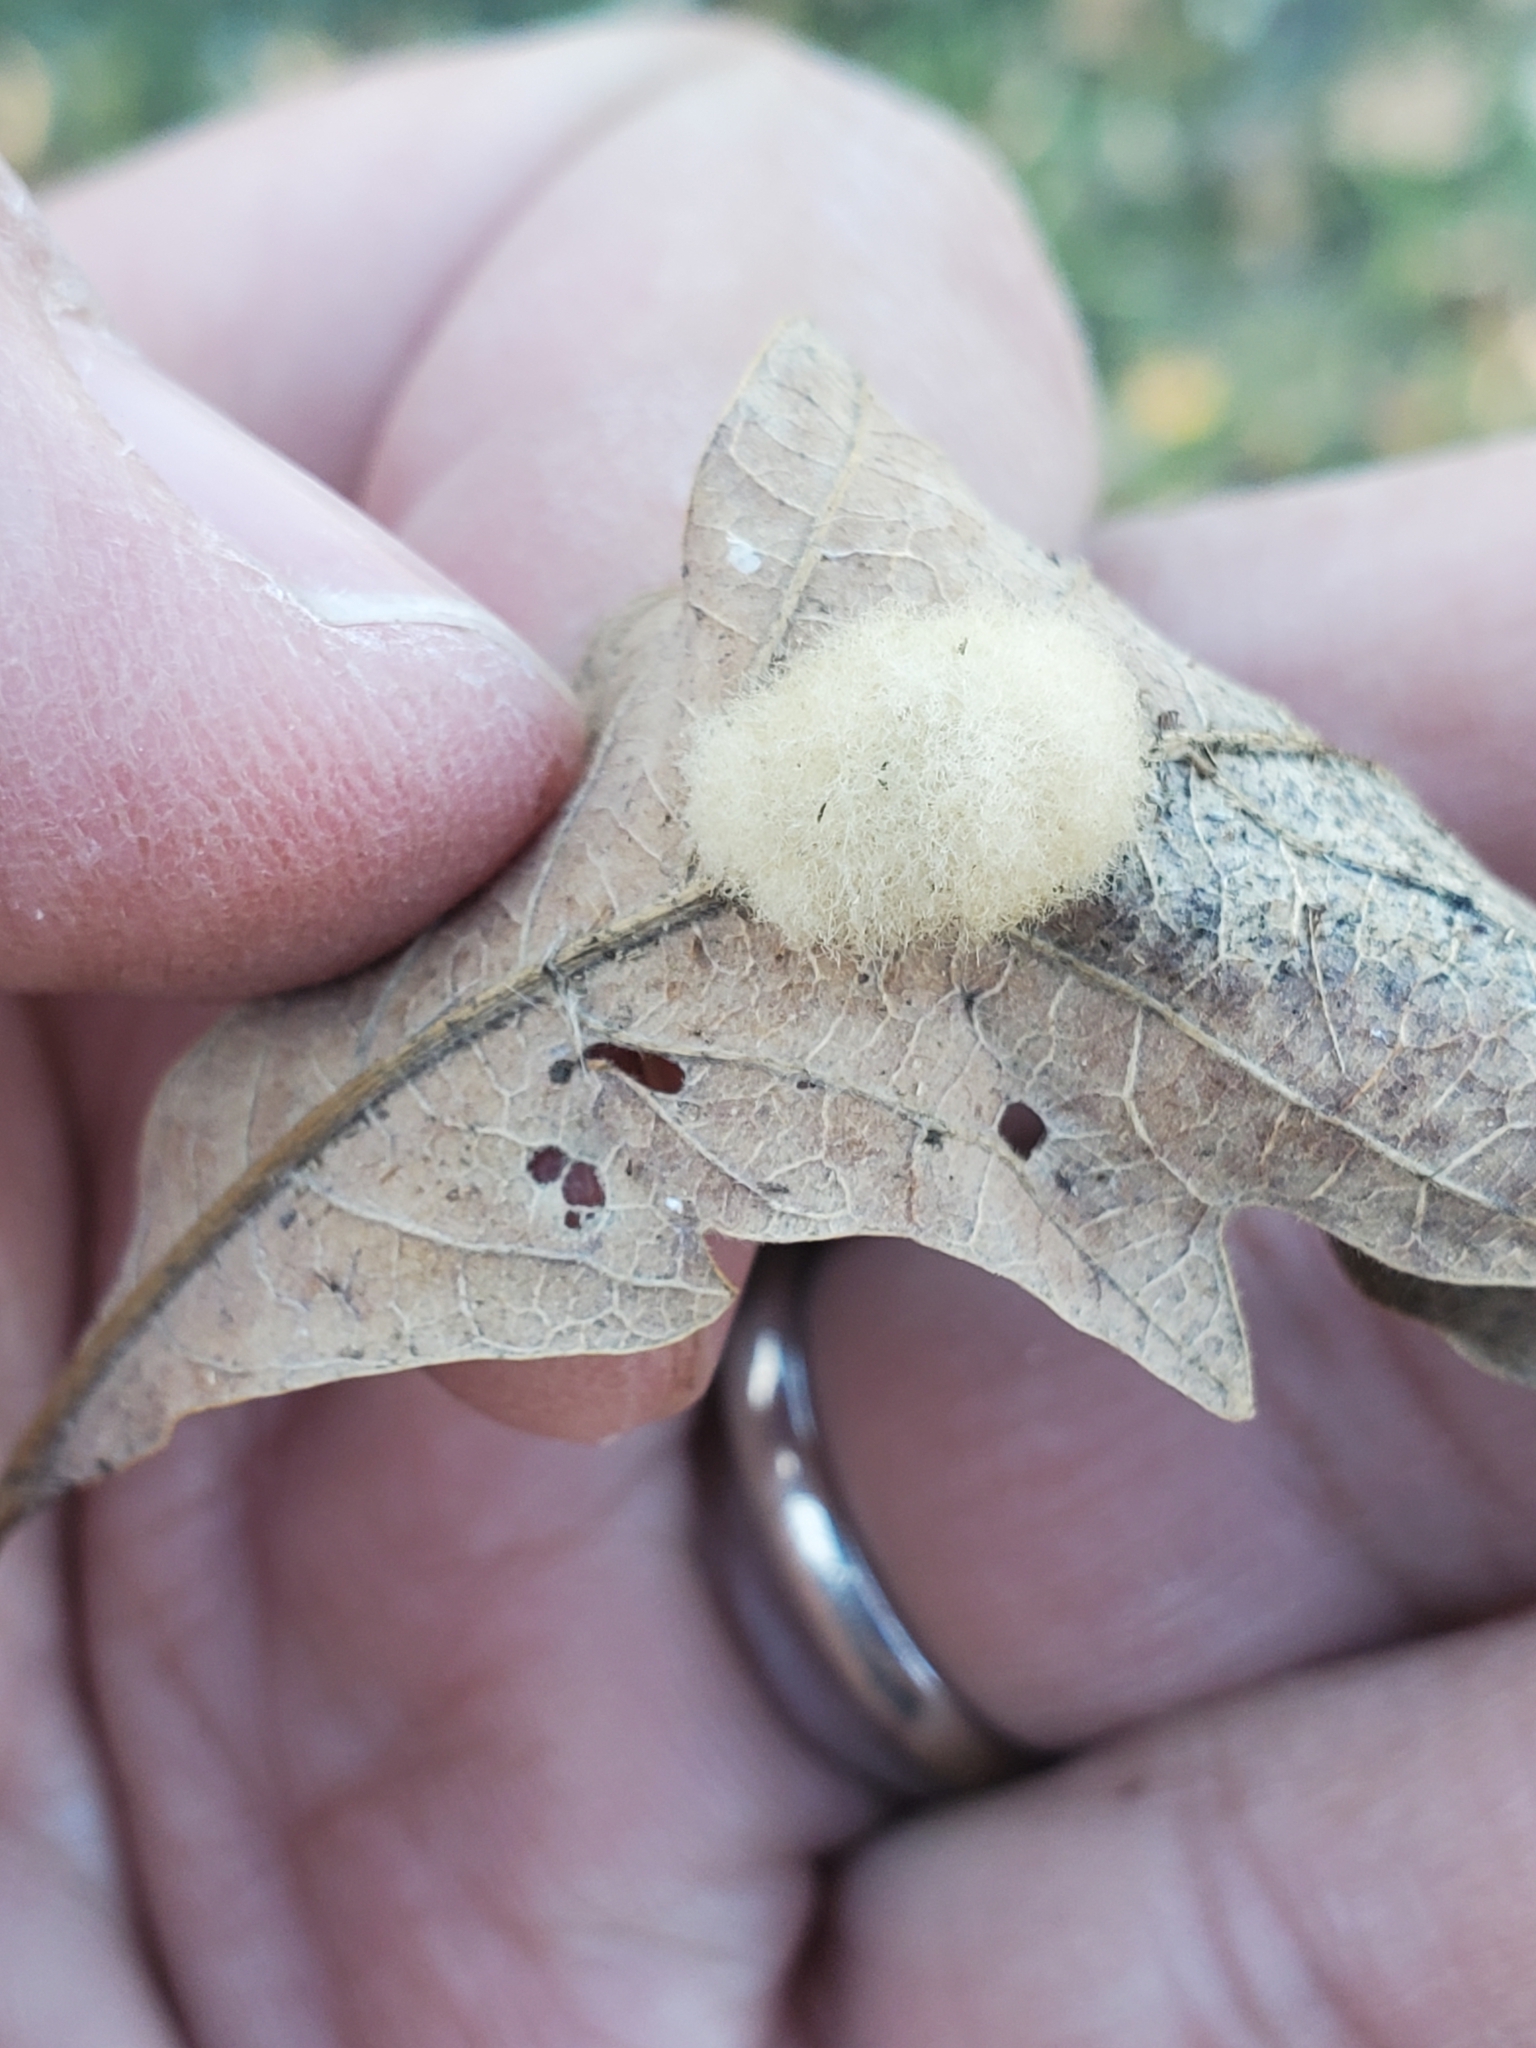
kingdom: Animalia
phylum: Arthropoda
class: Insecta
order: Hymenoptera
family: Cynipidae
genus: Andricus
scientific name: Andricus Druon ignotum
